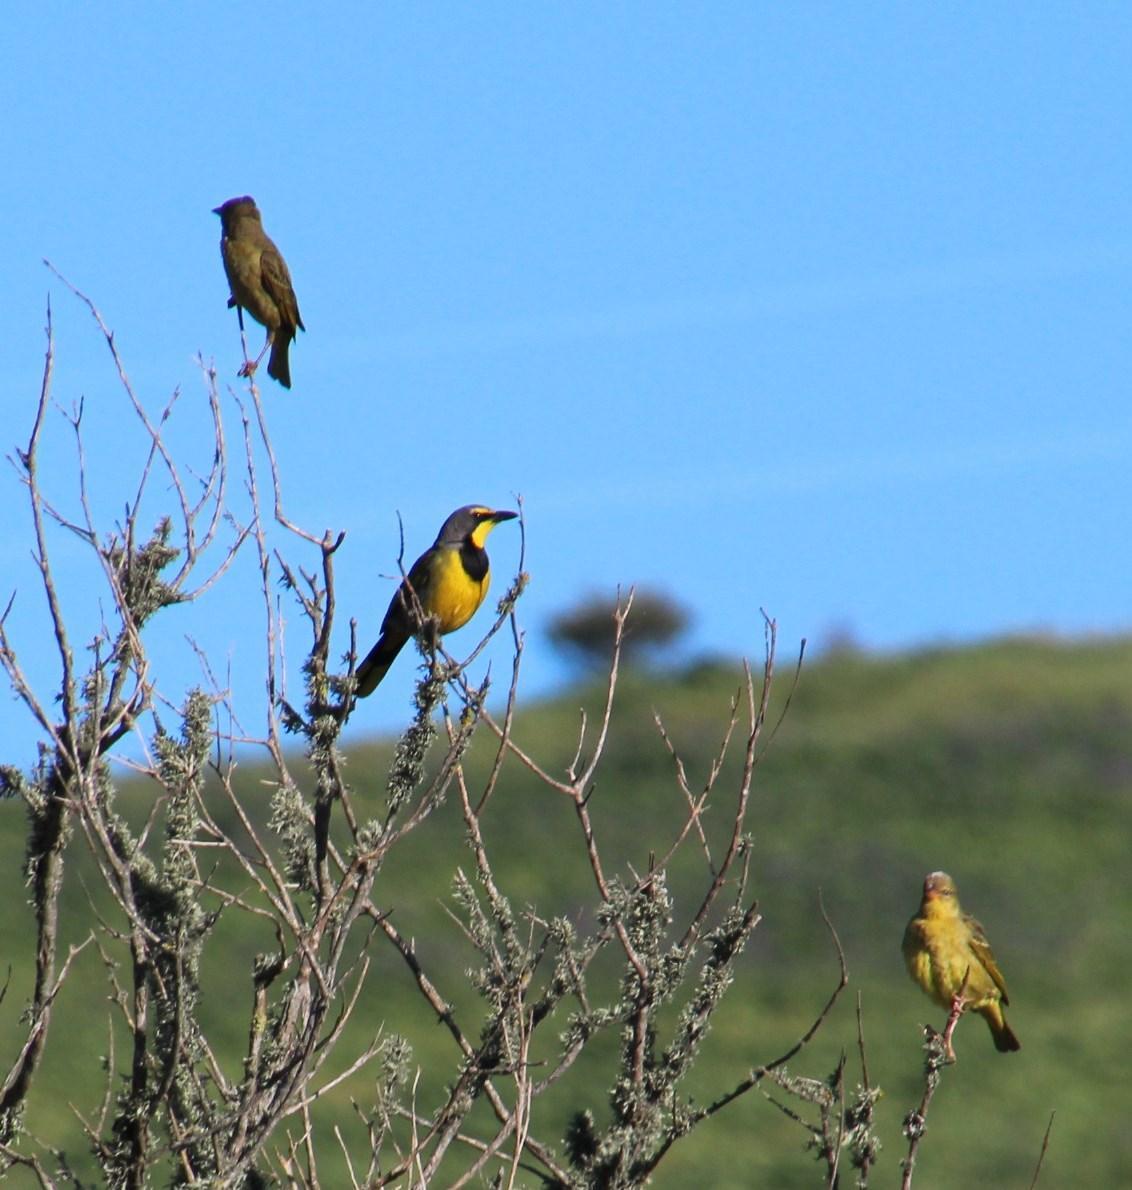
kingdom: Animalia
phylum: Chordata
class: Aves
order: Passeriformes
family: Ploceidae
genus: Ploceus
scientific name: Ploceus capensis
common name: Cape weaver
